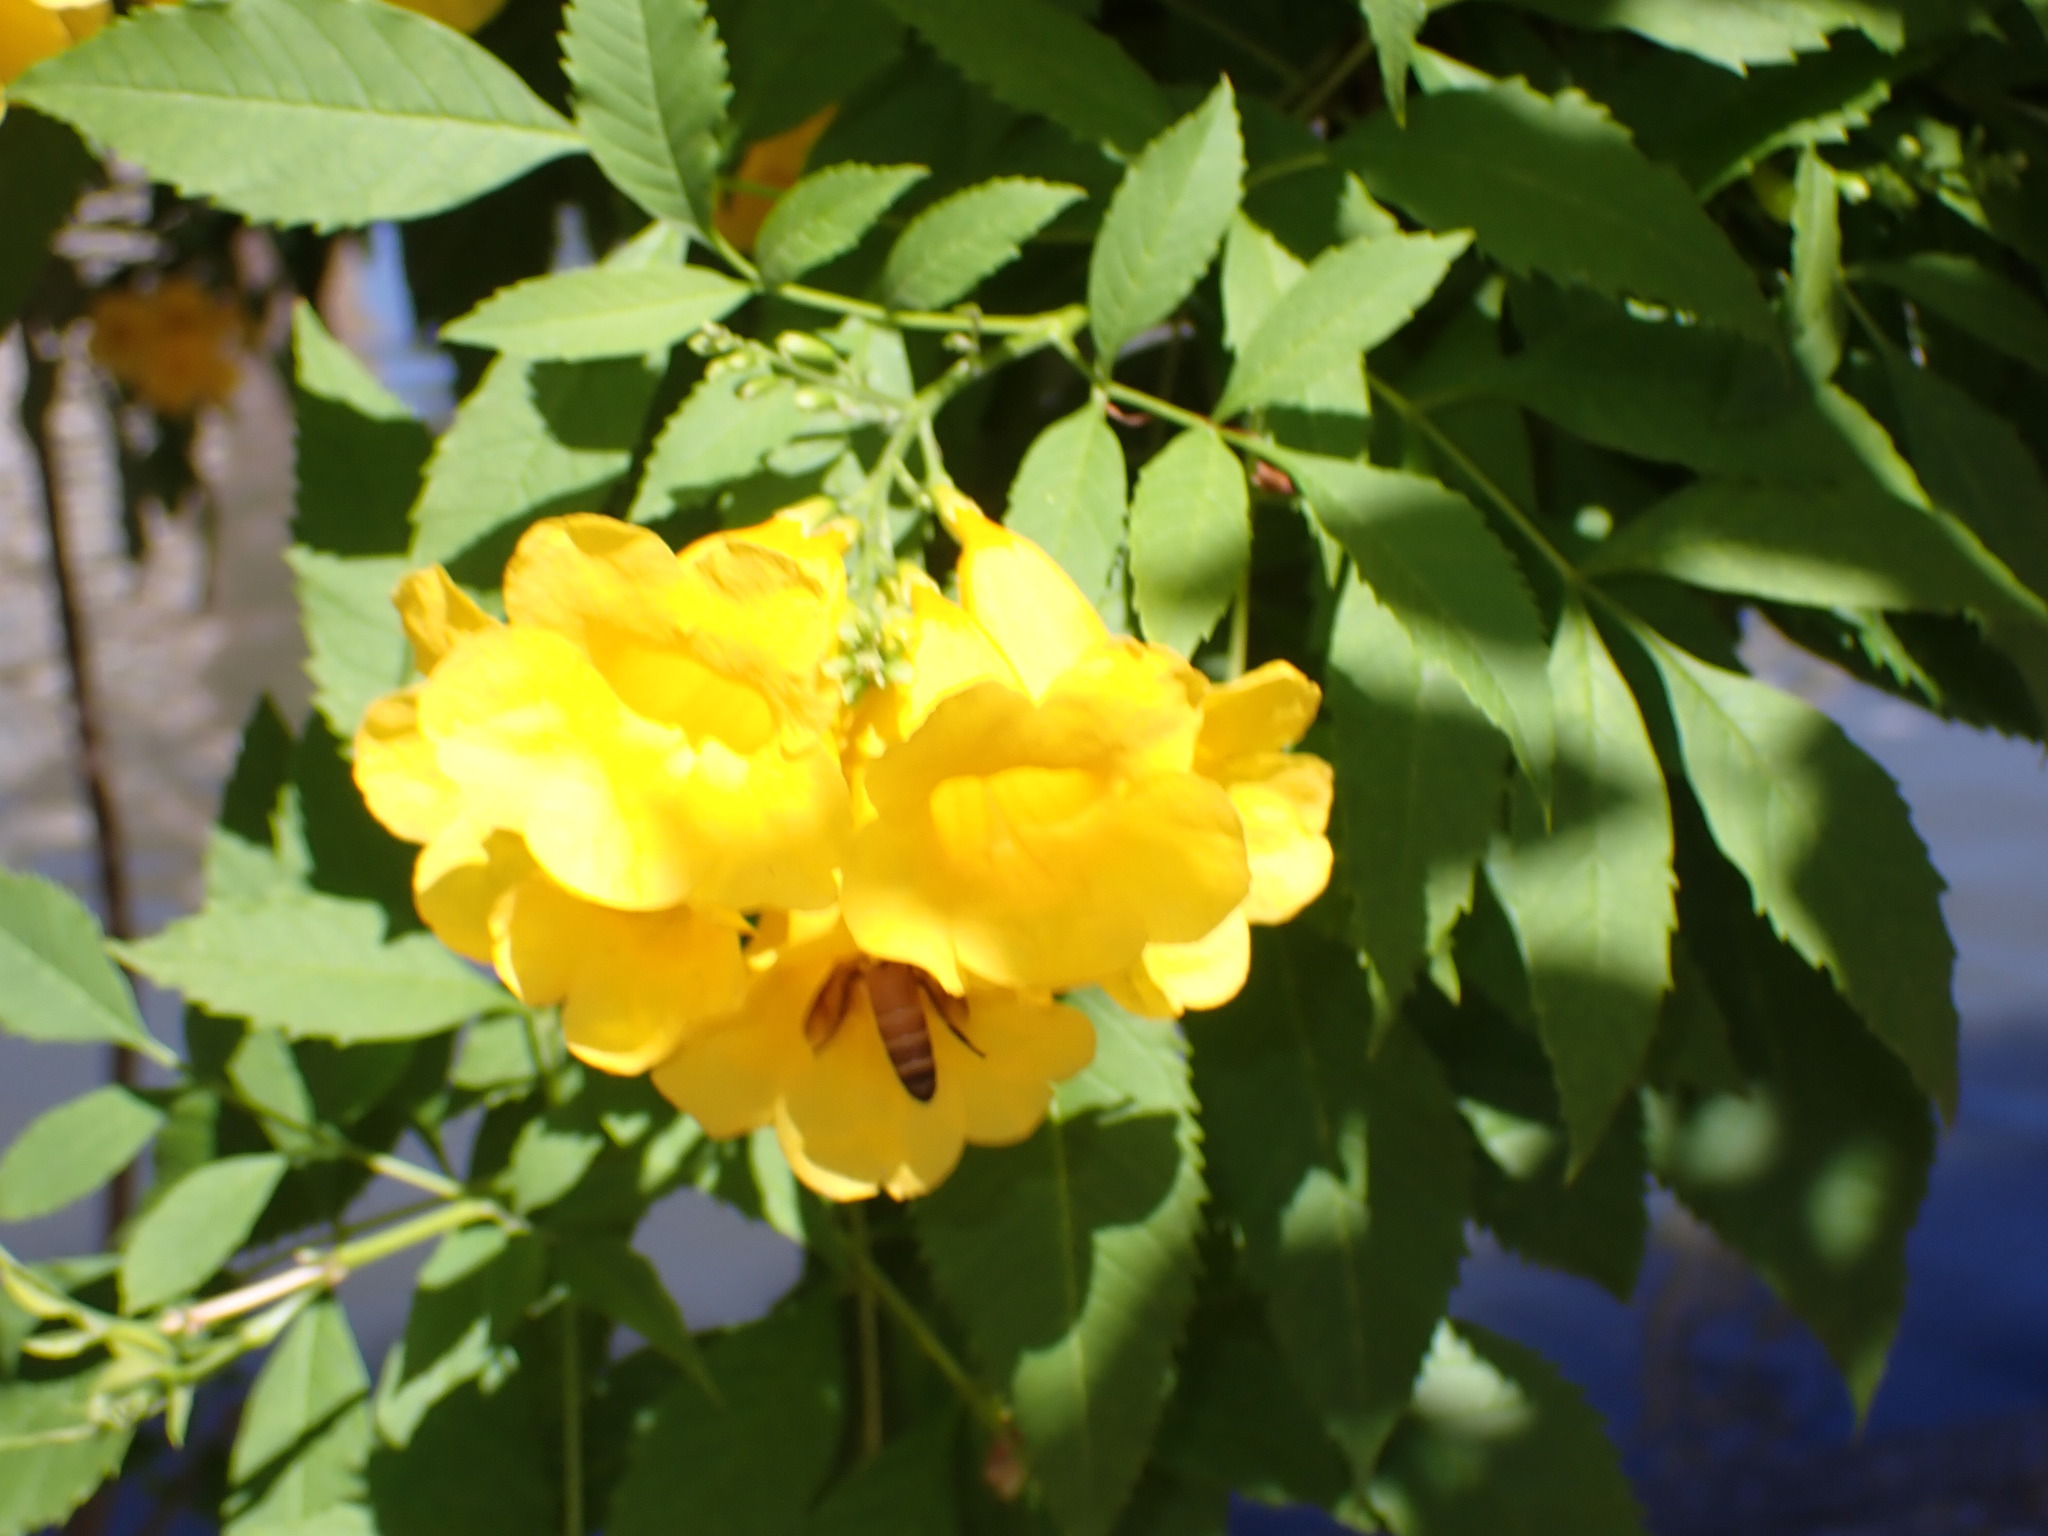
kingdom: Animalia
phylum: Arthropoda
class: Insecta
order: Hymenoptera
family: Apidae
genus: Apis
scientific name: Apis dorsata
